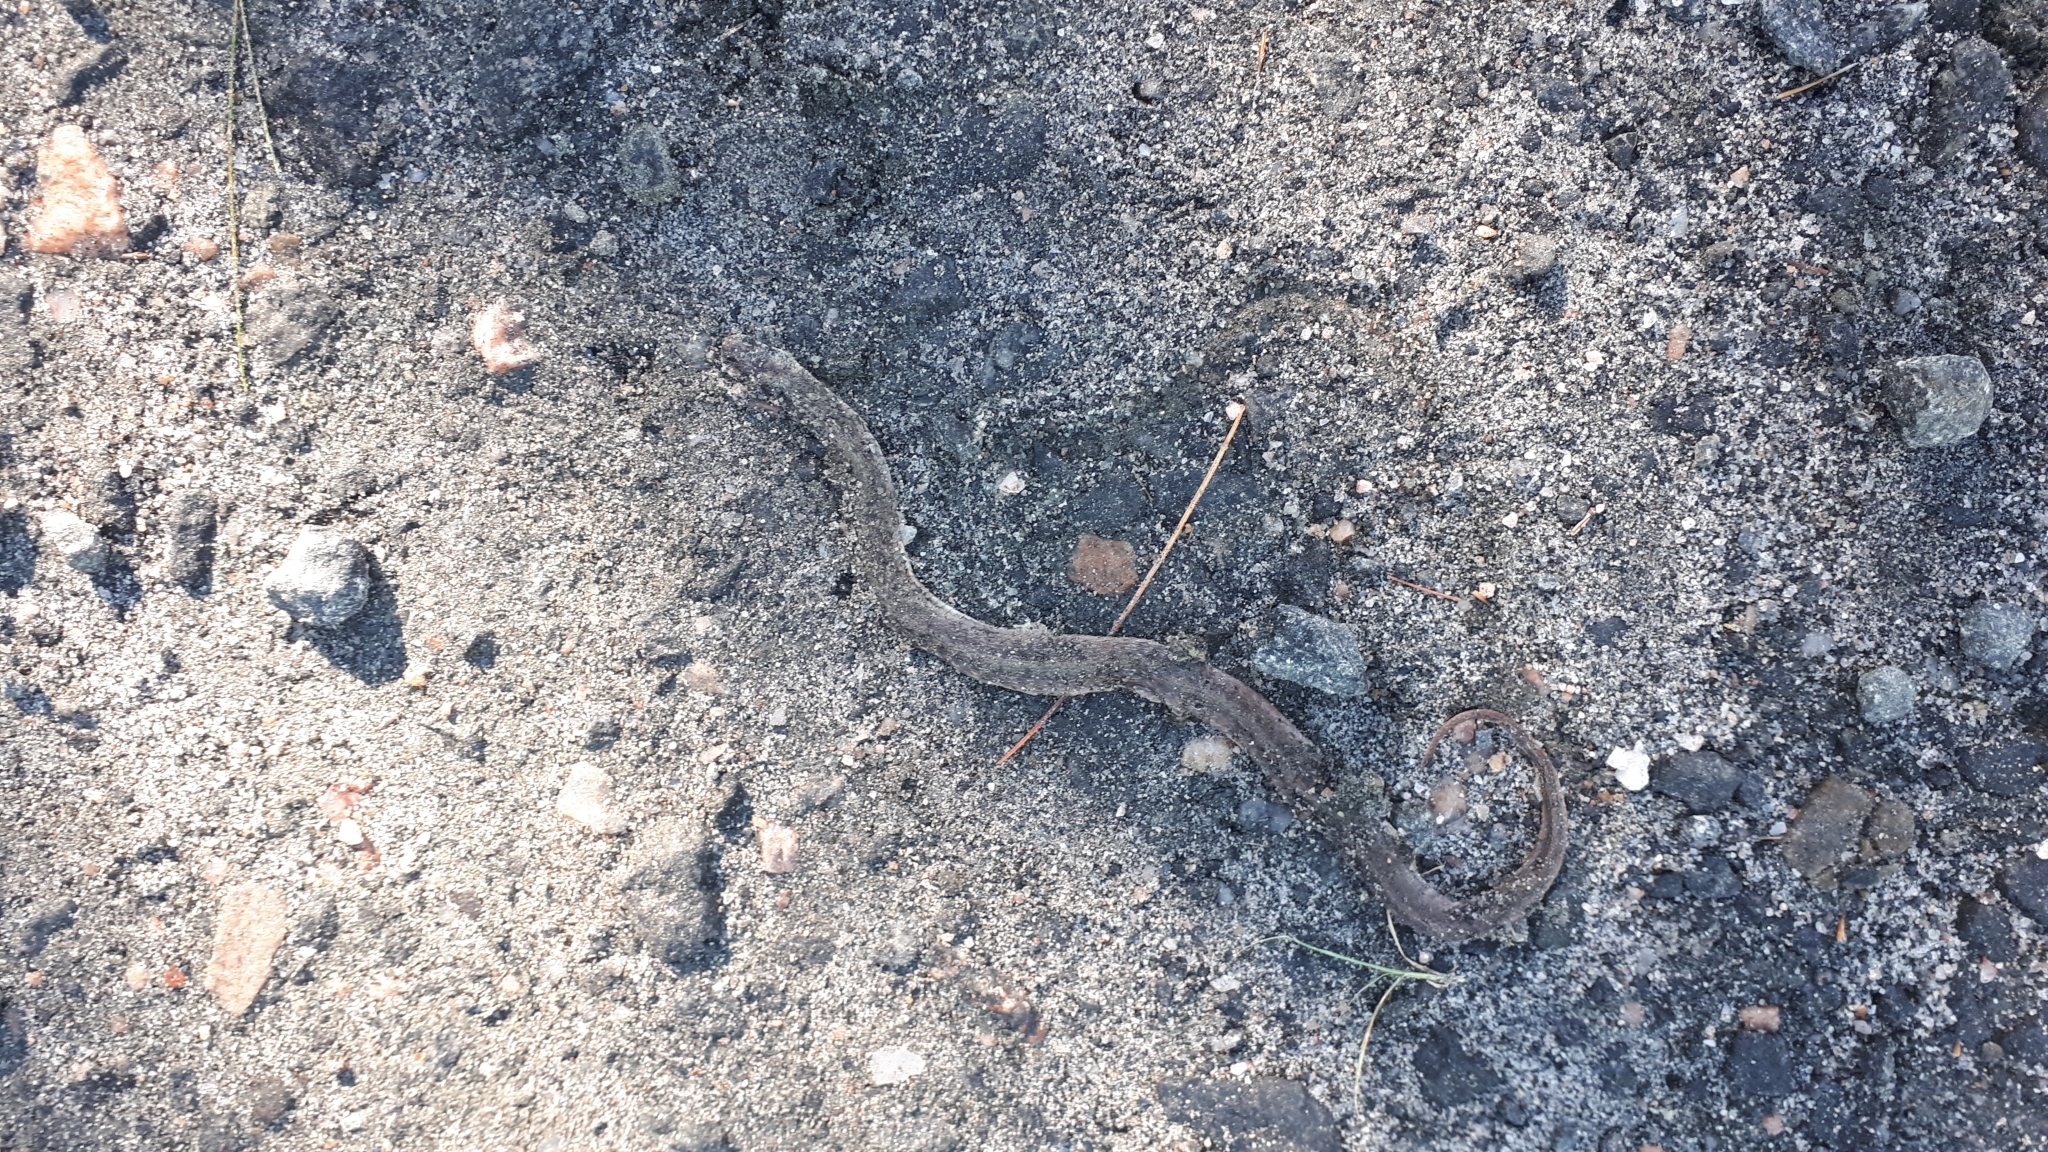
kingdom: Animalia
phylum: Chordata
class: Squamata
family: Colubridae
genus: Storeria
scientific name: Storeria dekayi
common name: (dekay’s) brown snake
